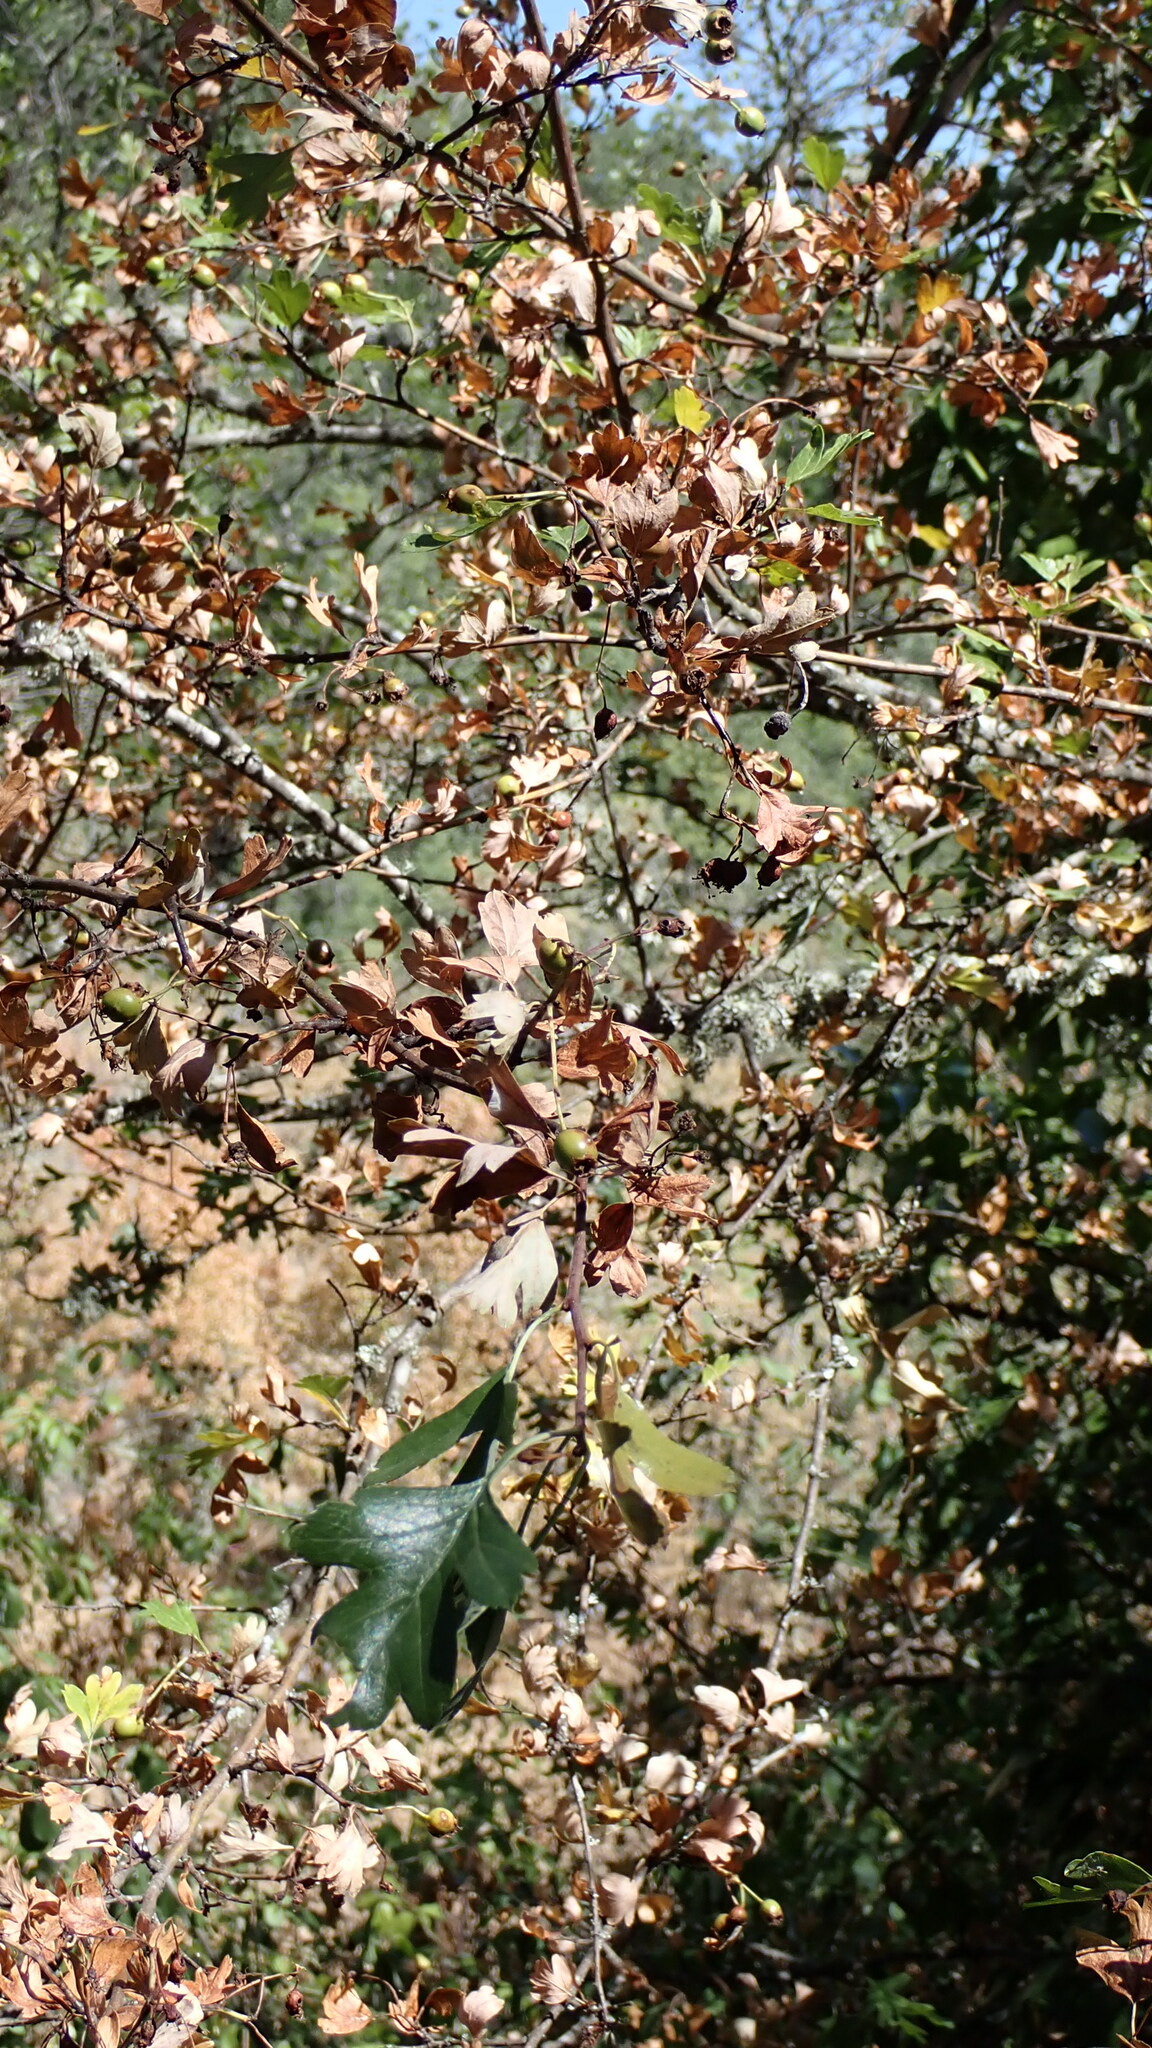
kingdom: Plantae
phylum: Tracheophyta
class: Magnoliopsida
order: Rosales
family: Rosaceae
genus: Crataegus
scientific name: Crataegus monogyna
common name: Hawthorn
